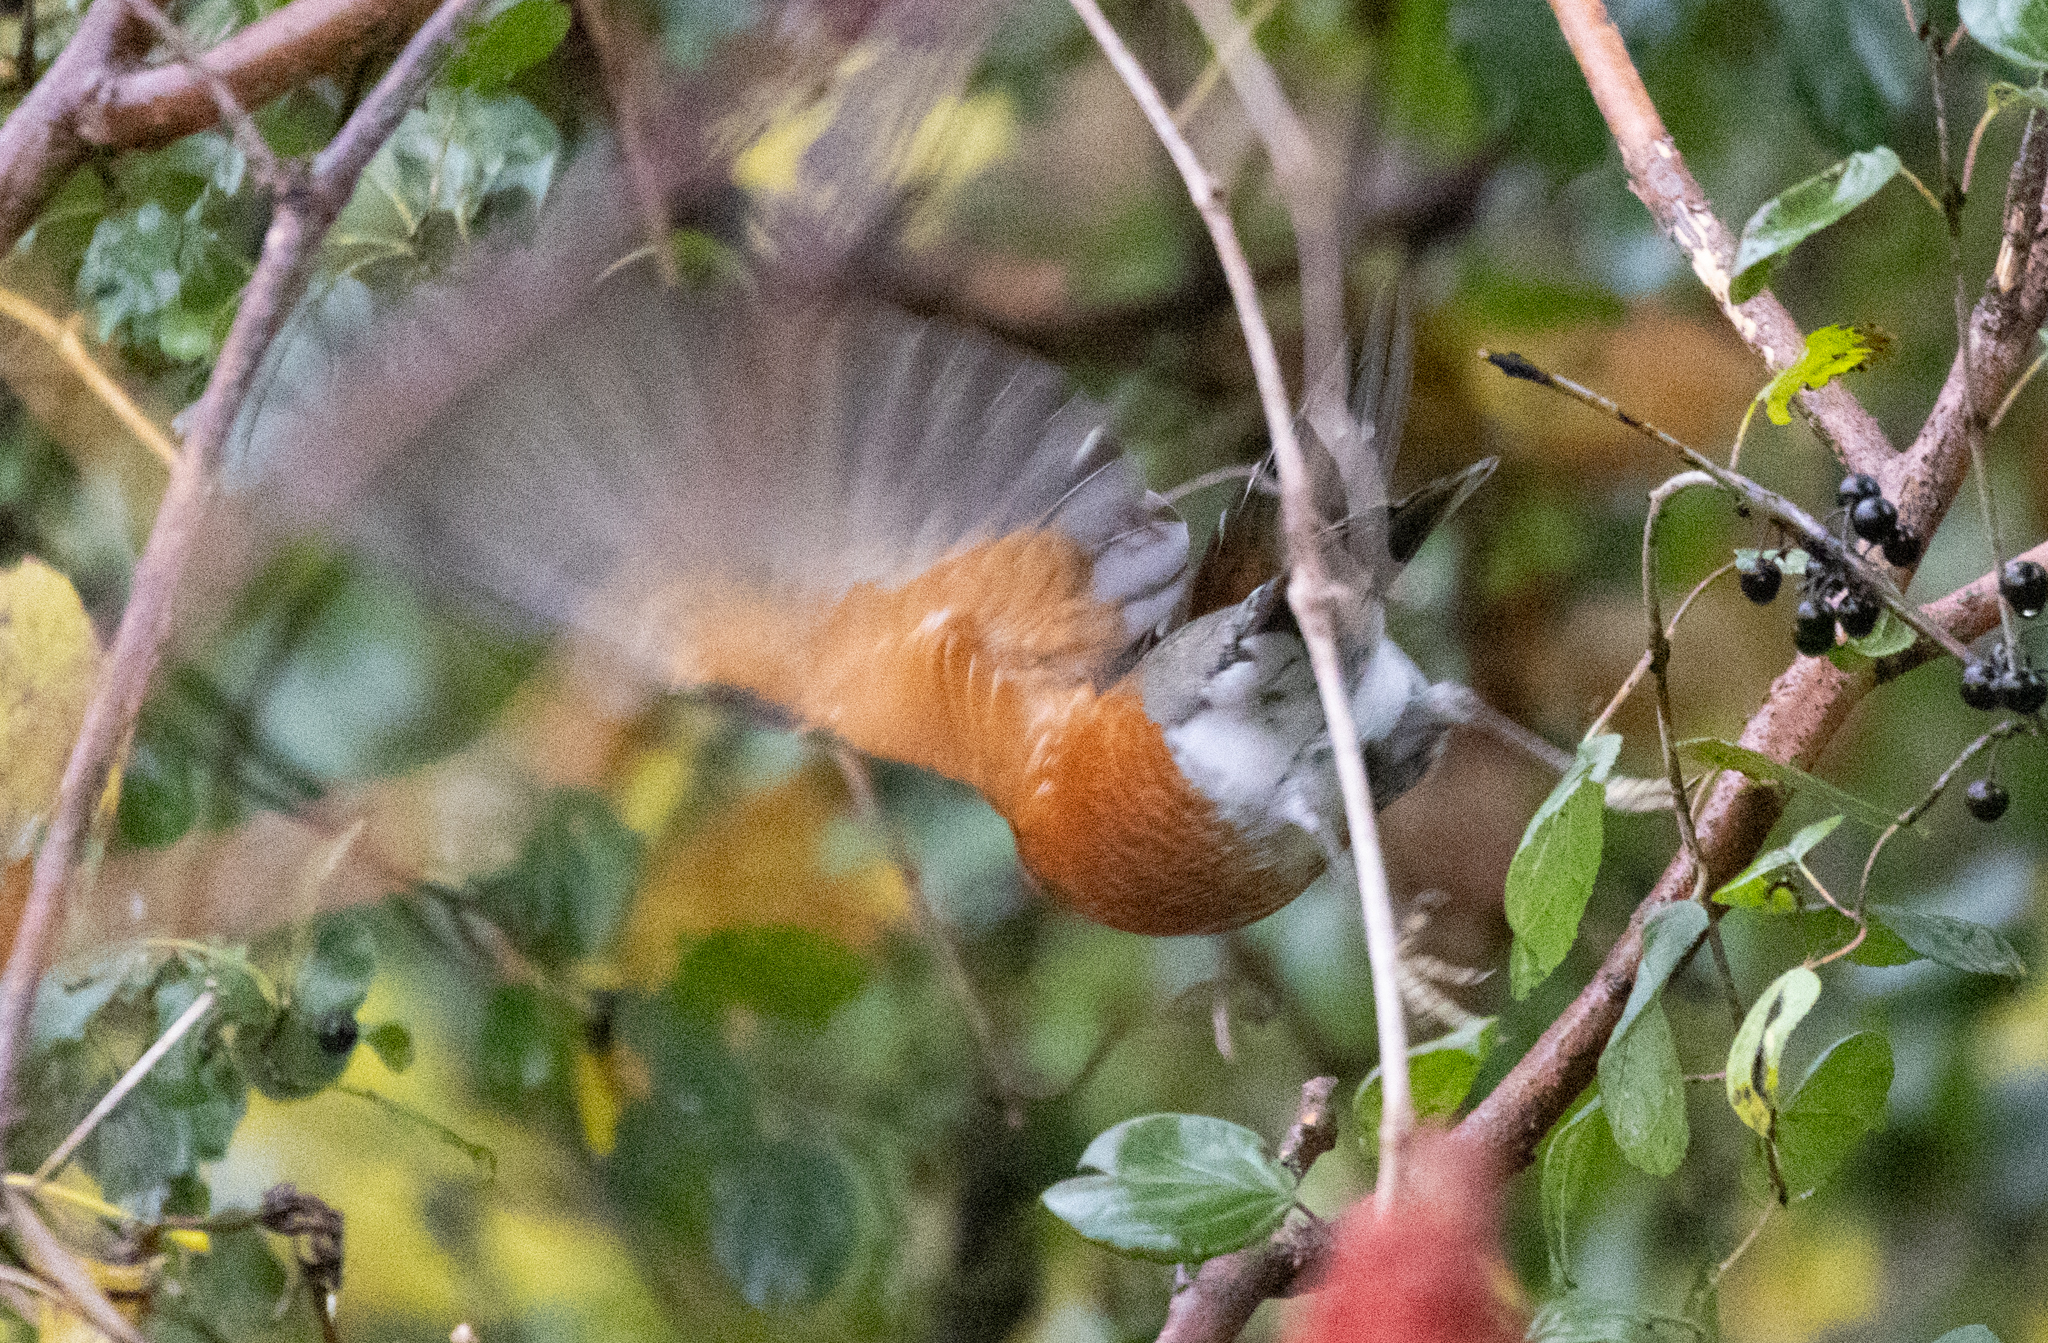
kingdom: Animalia
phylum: Chordata
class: Aves
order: Passeriformes
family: Turdidae
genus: Turdus
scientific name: Turdus migratorius
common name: American robin
